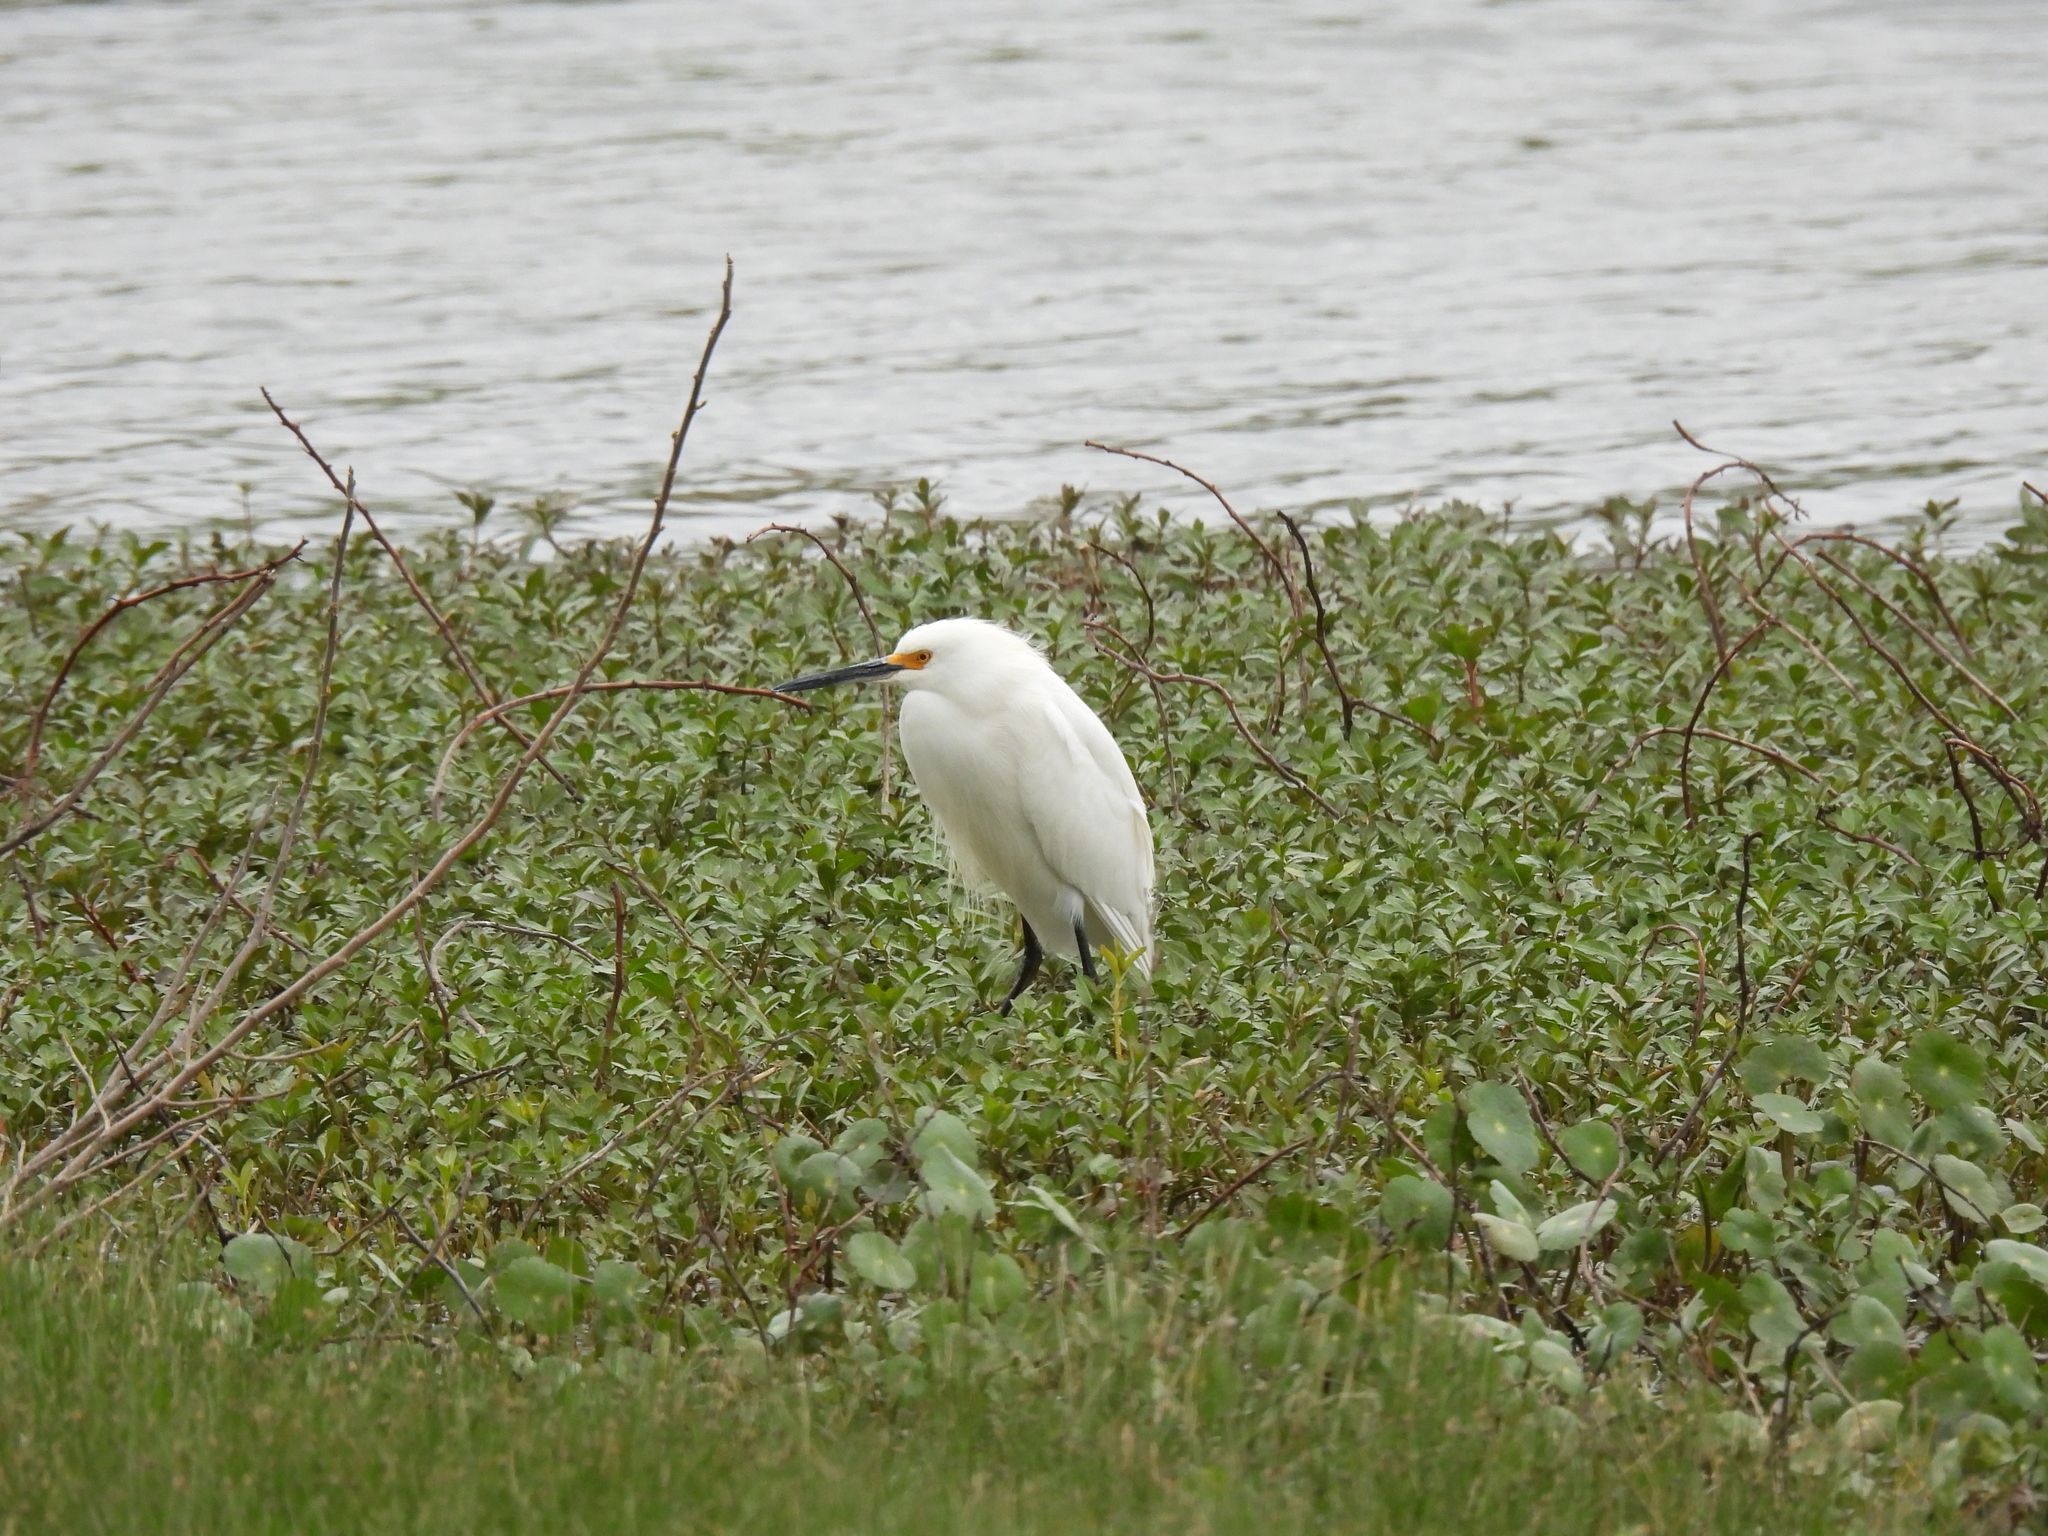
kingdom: Animalia
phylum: Chordata
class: Aves
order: Pelecaniformes
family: Ardeidae
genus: Egretta
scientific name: Egretta thula
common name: Snowy egret
